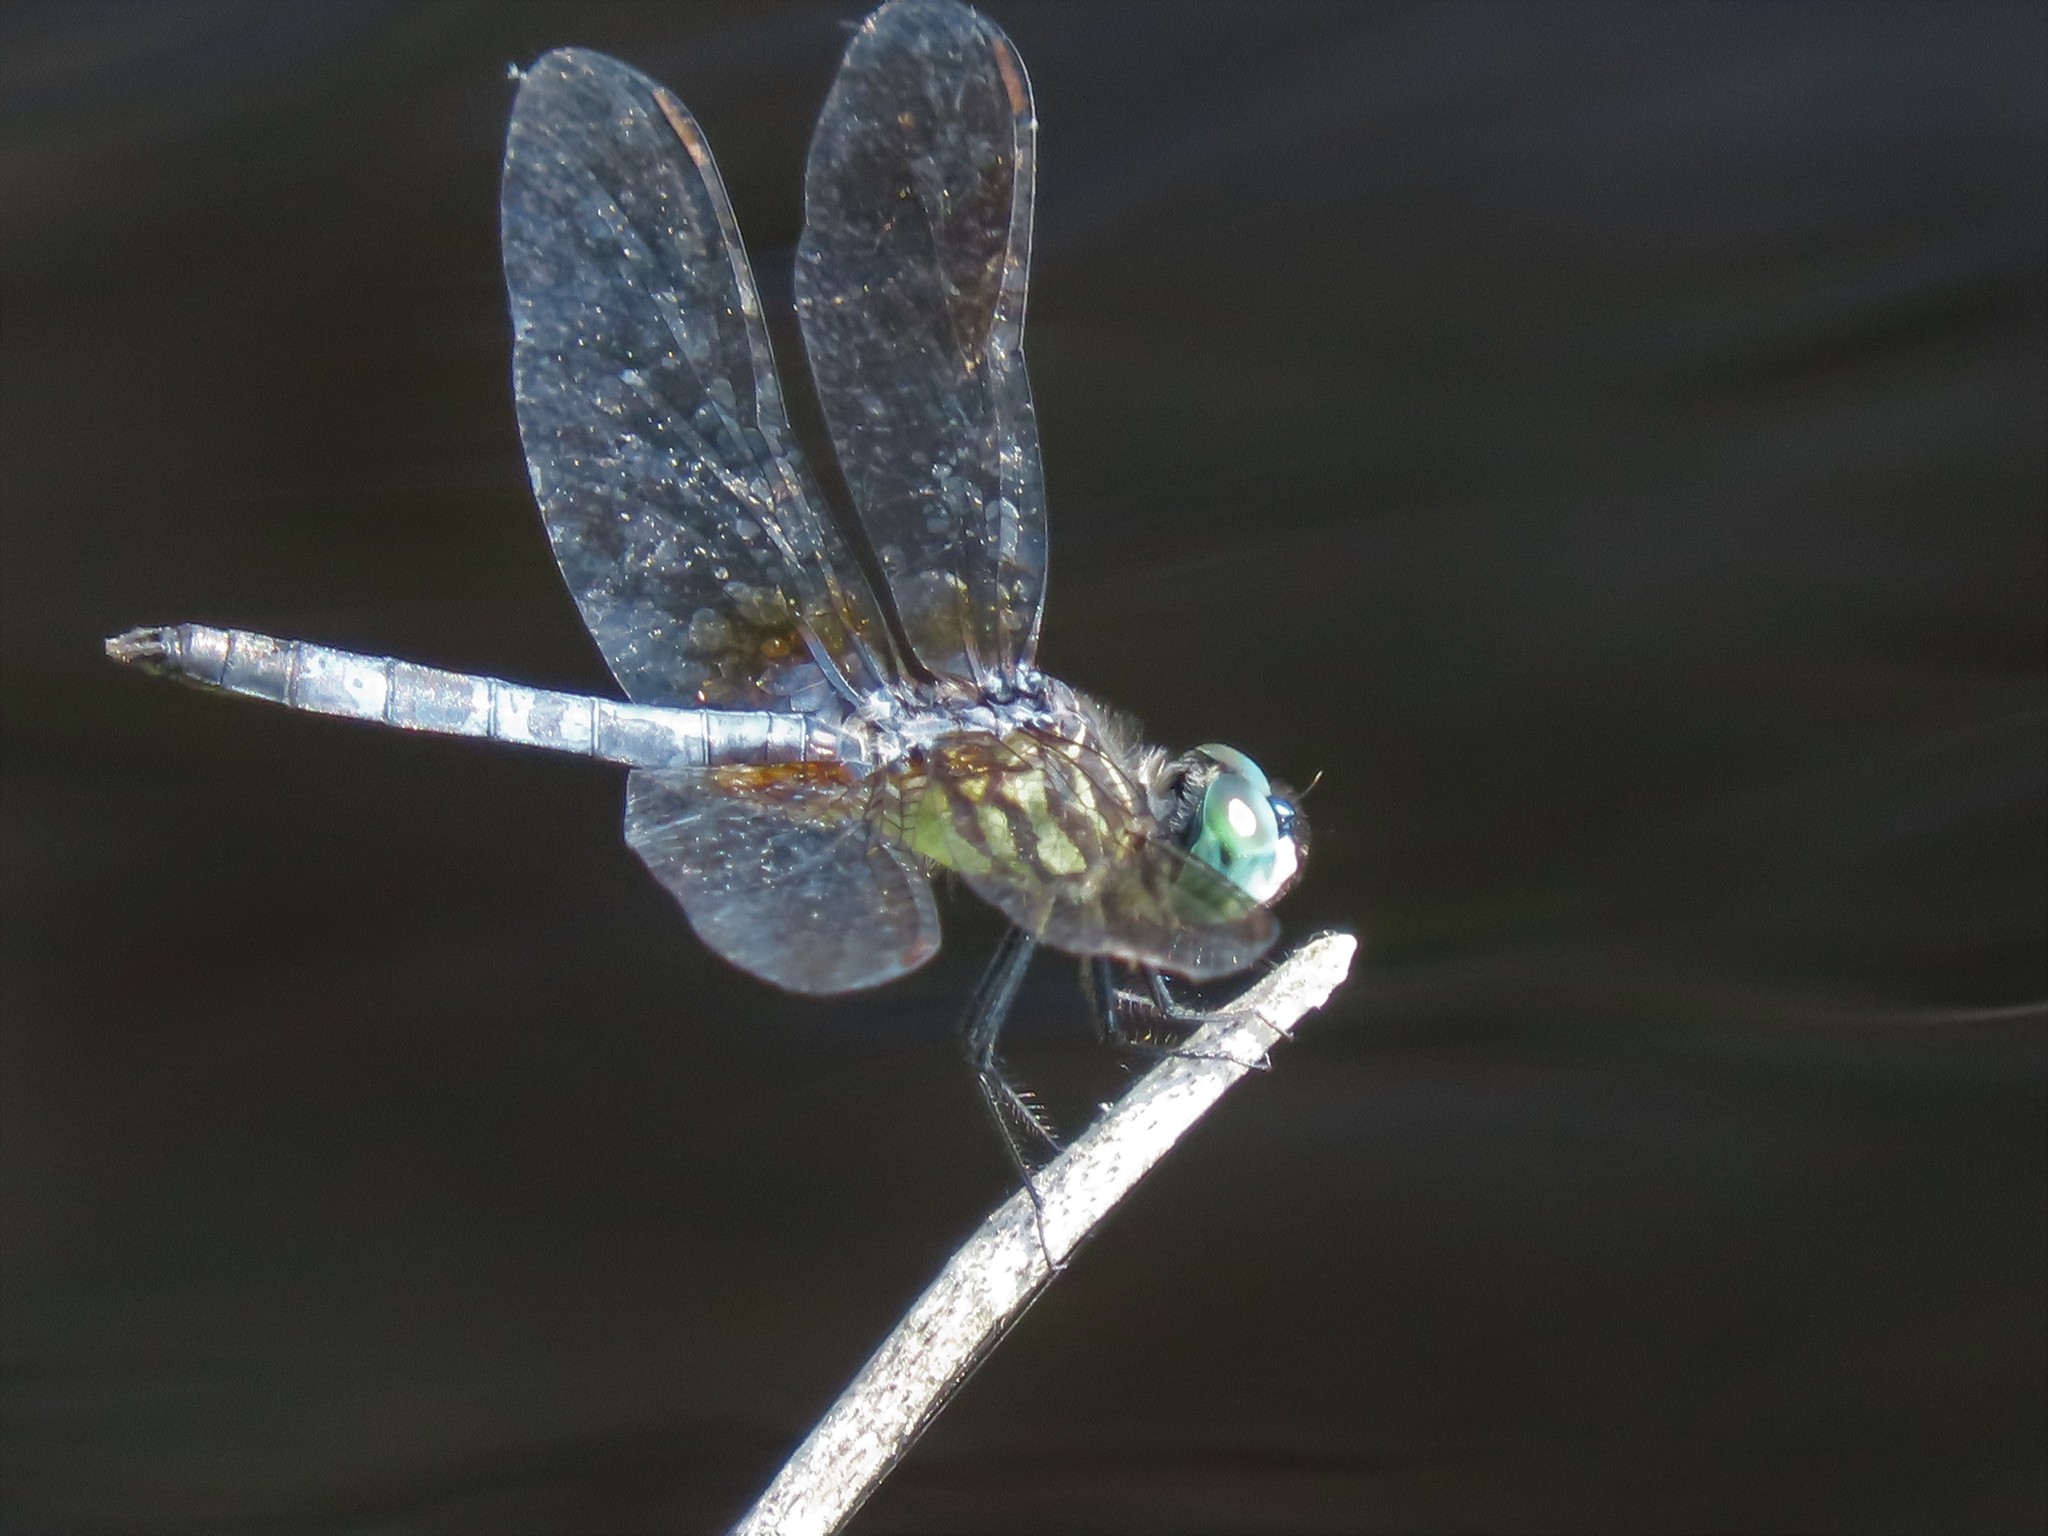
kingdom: Animalia
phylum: Arthropoda
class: Insecta
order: Odonata
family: Libellulidae
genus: Pachydiplax
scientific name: Pachydiplax longipennis
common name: Blue dasher
